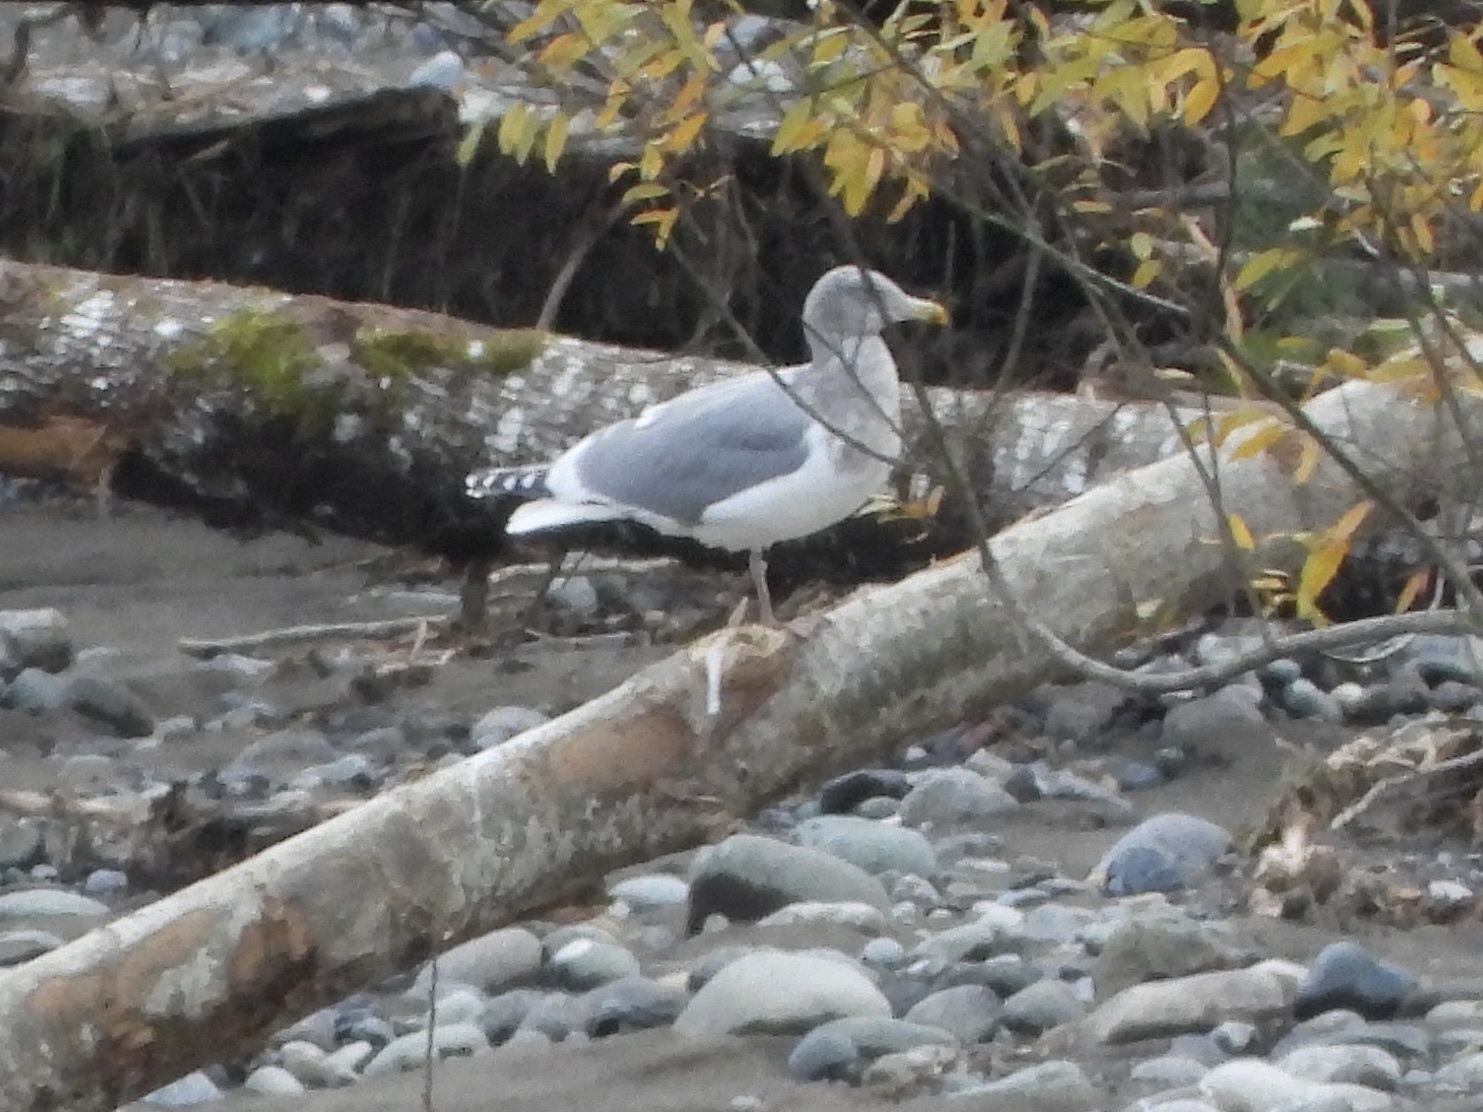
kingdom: Animalia
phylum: Chordata
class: Aves
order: Charadriiformes
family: Laridae
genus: Larus
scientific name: Larus
